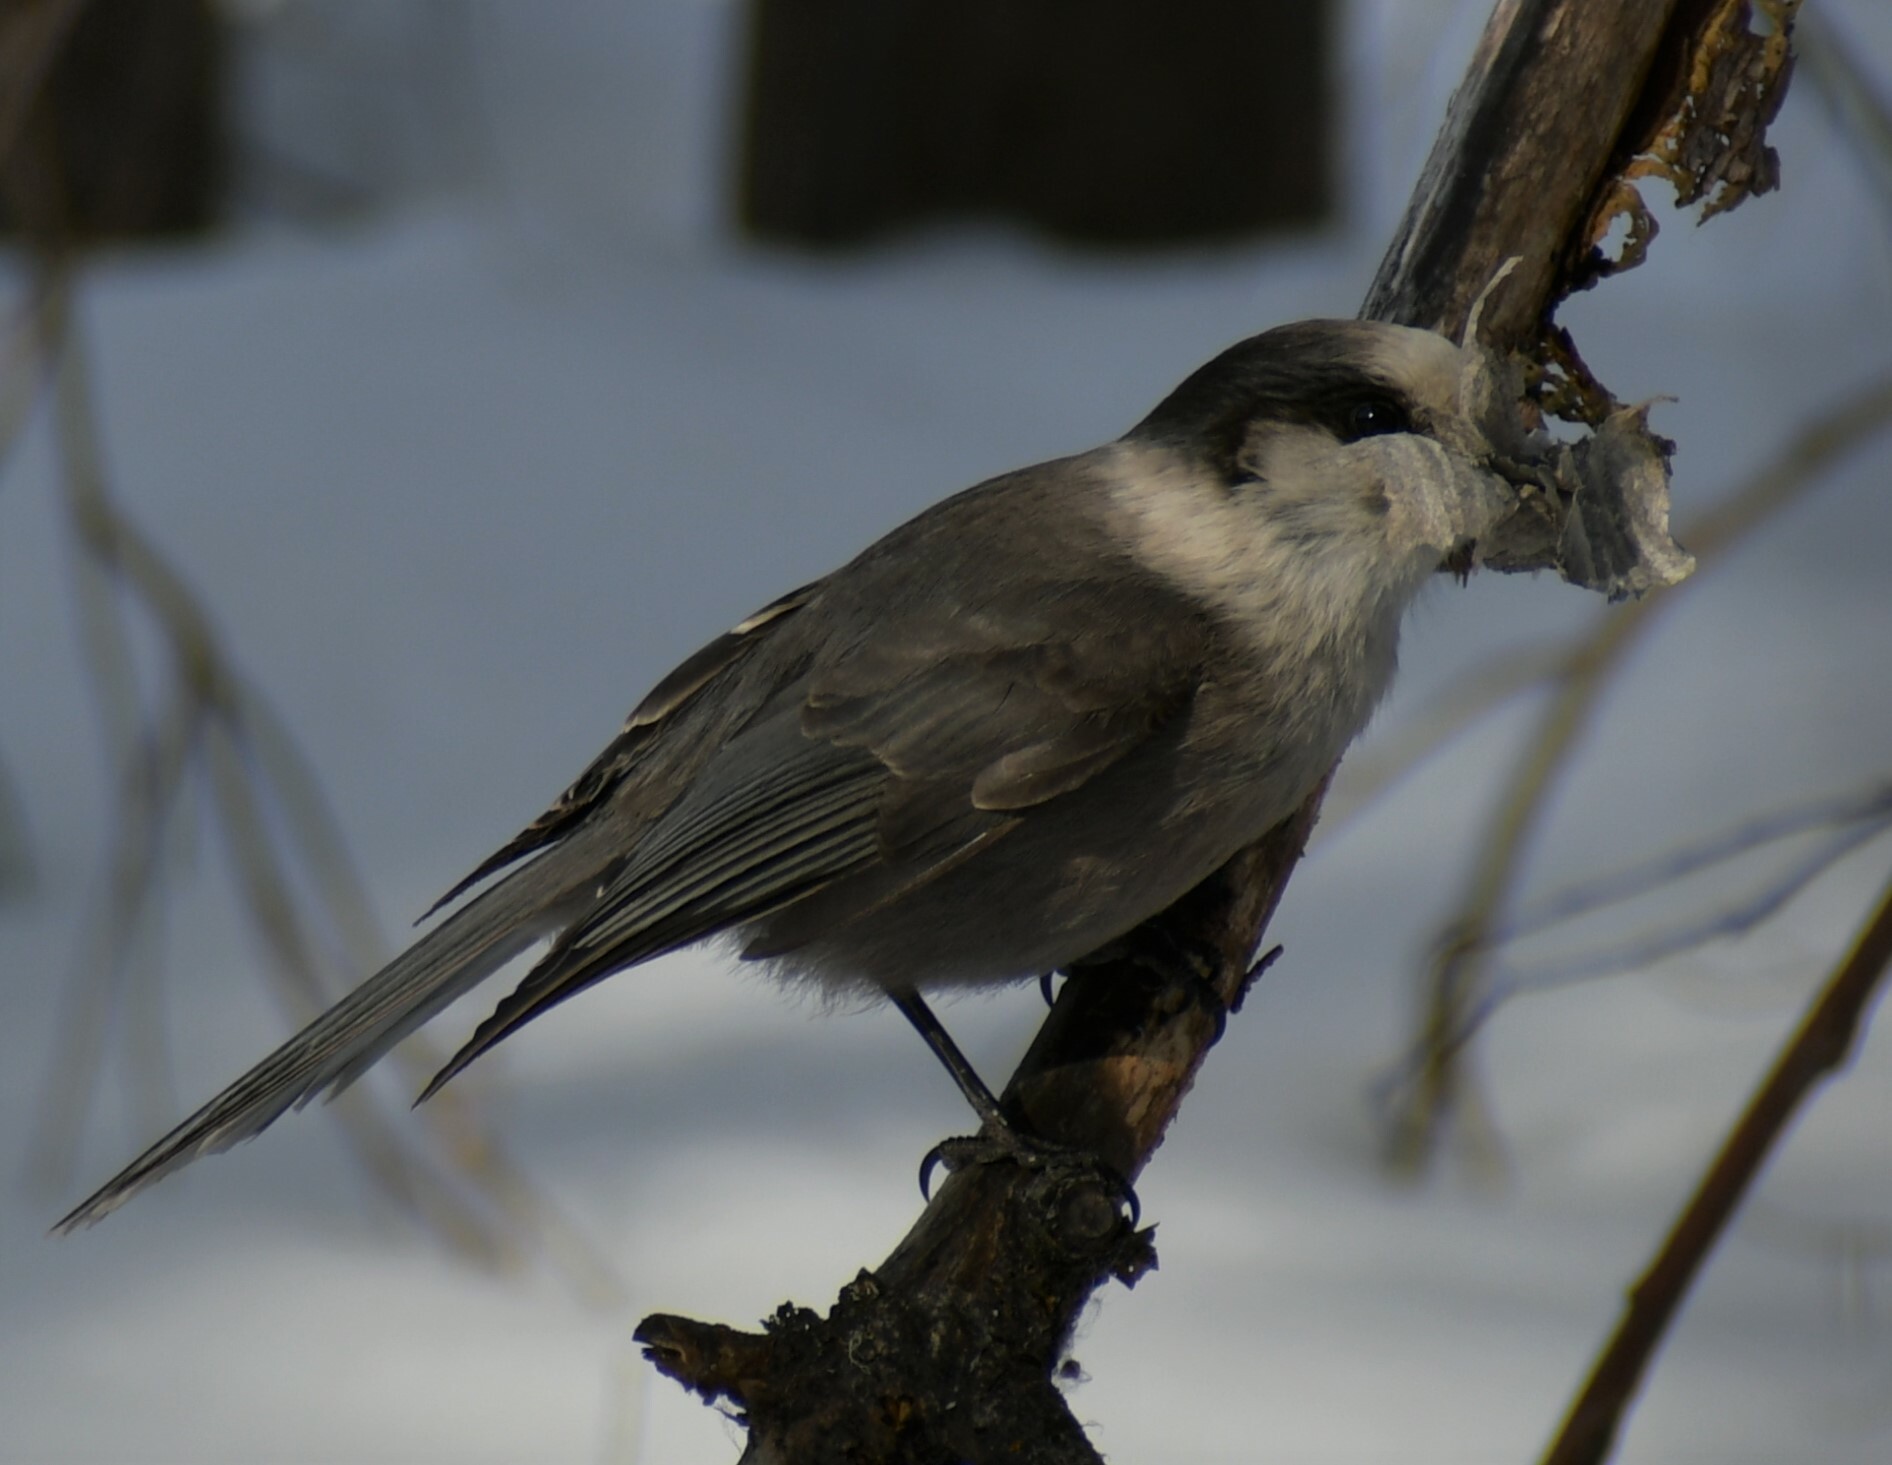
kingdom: Animalia
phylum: Chordata
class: Aves
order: Passeriformes
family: Corvidae
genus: Perisoreus
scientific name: Perisoreus canadensis
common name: Gray jay
